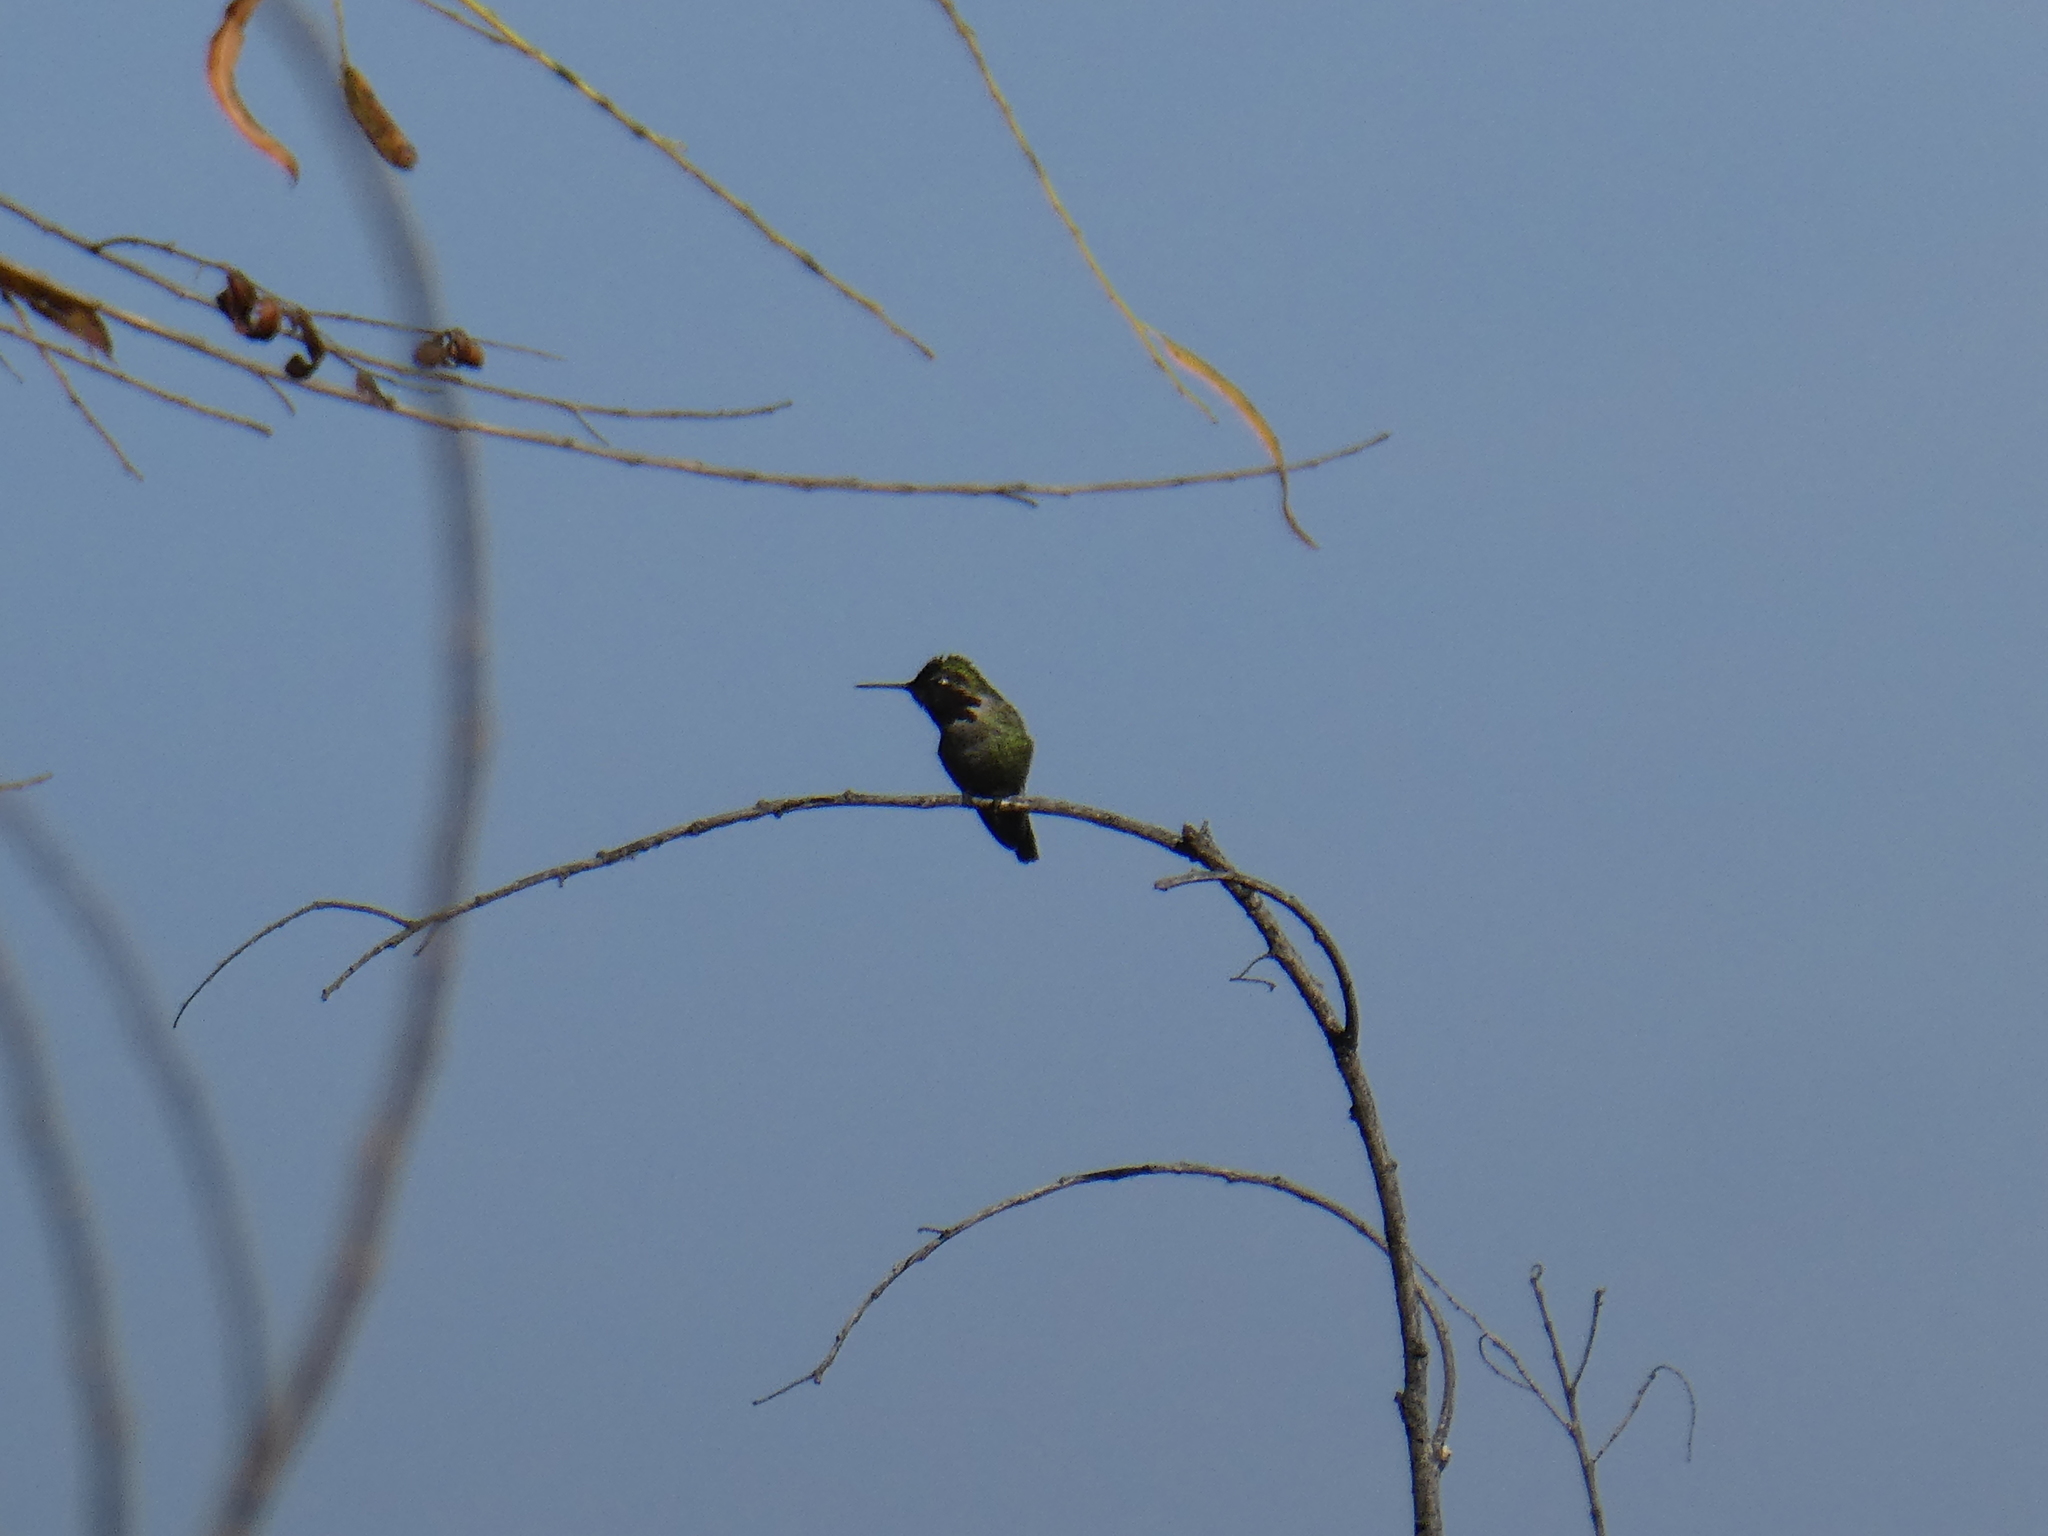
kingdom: Animalia
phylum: Chordata
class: Aves
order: Apodiformes
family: Trochilidae
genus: Calypte
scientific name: Calypte anna
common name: Anna's hummingbird
